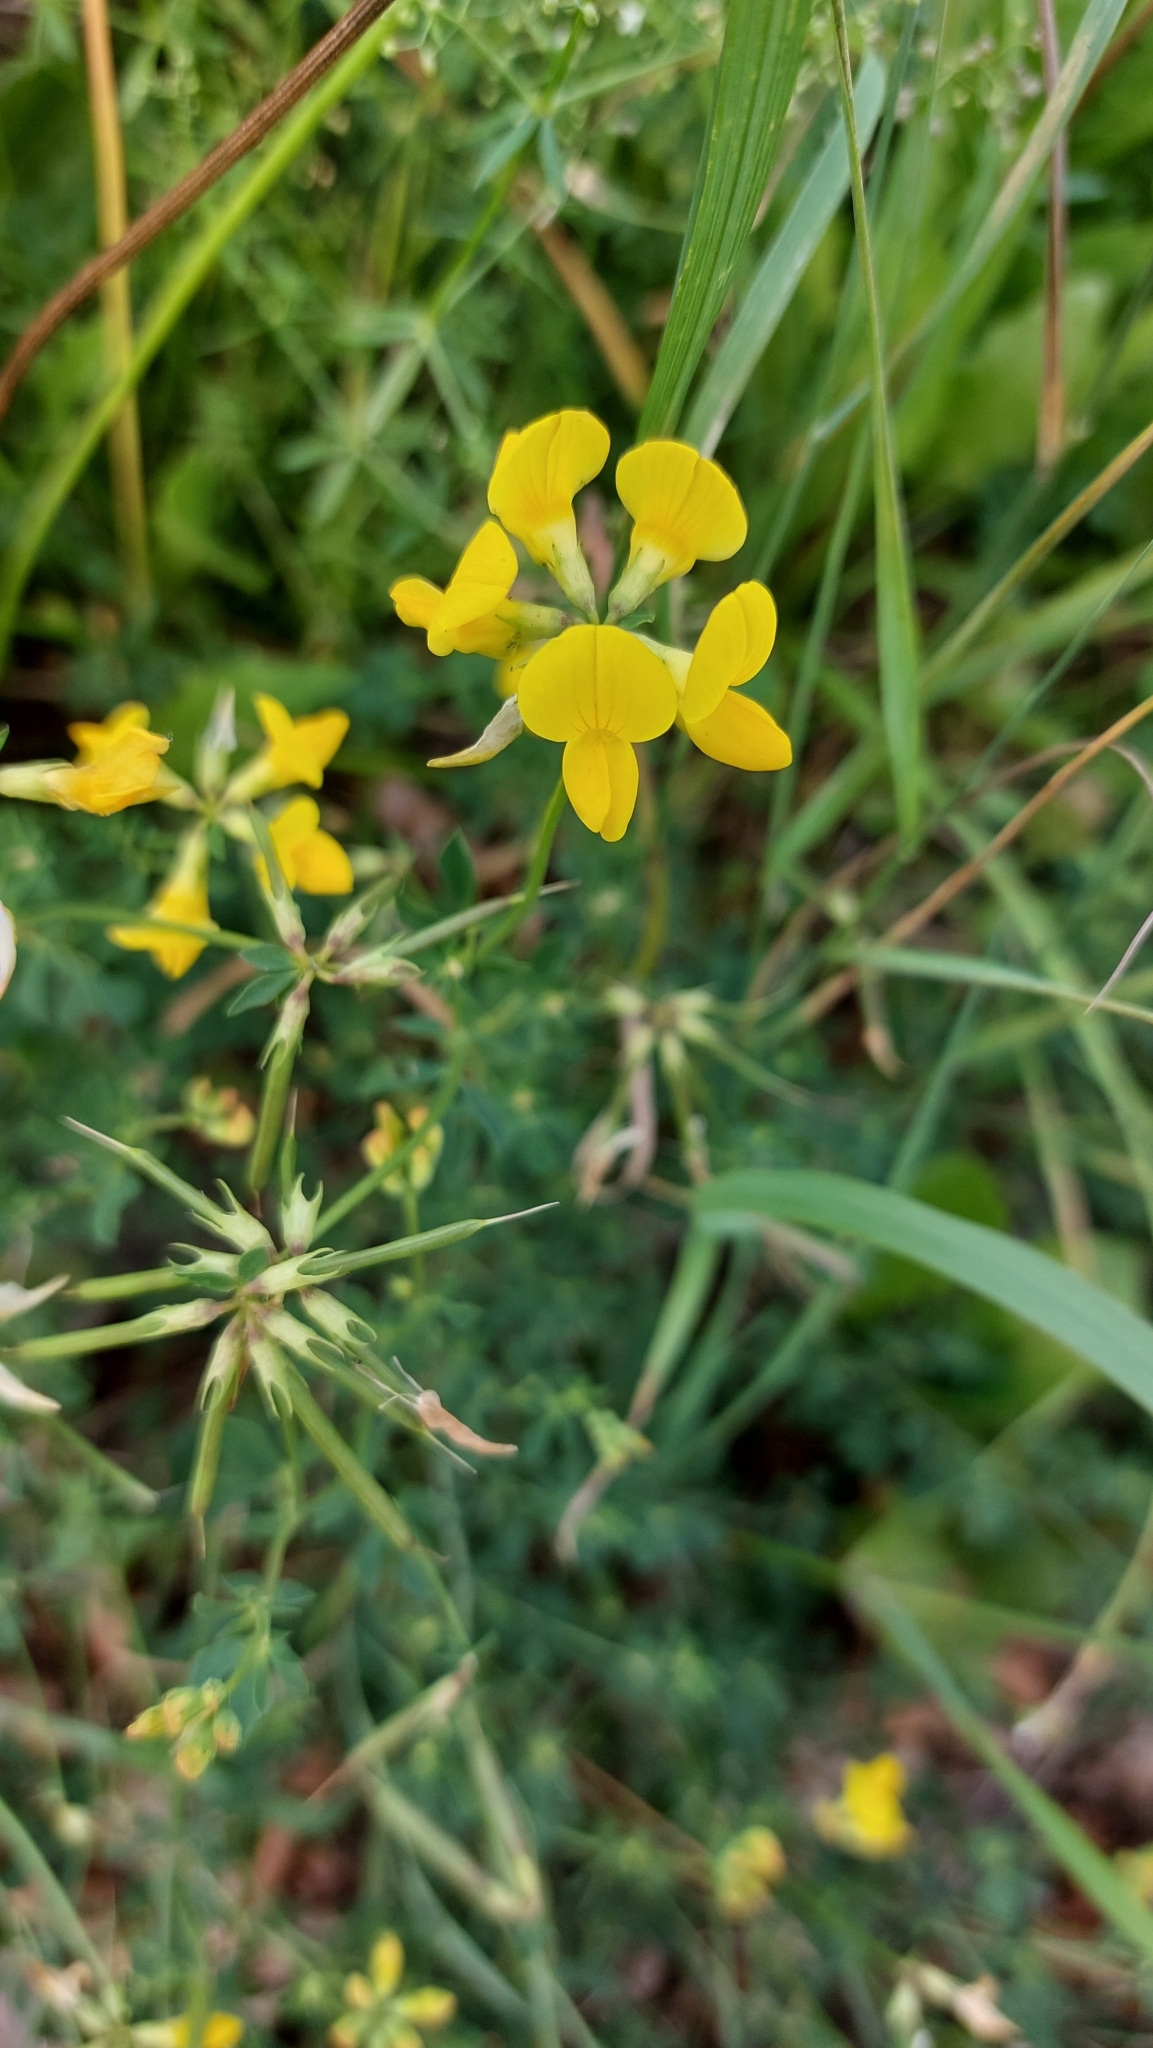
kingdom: Plantae
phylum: Tracheophyta
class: Magnoliopsida
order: Fabales
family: Fabaceae
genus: Lotus
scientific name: Lotus corniculatus
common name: Common bird's-foot-trefoil
